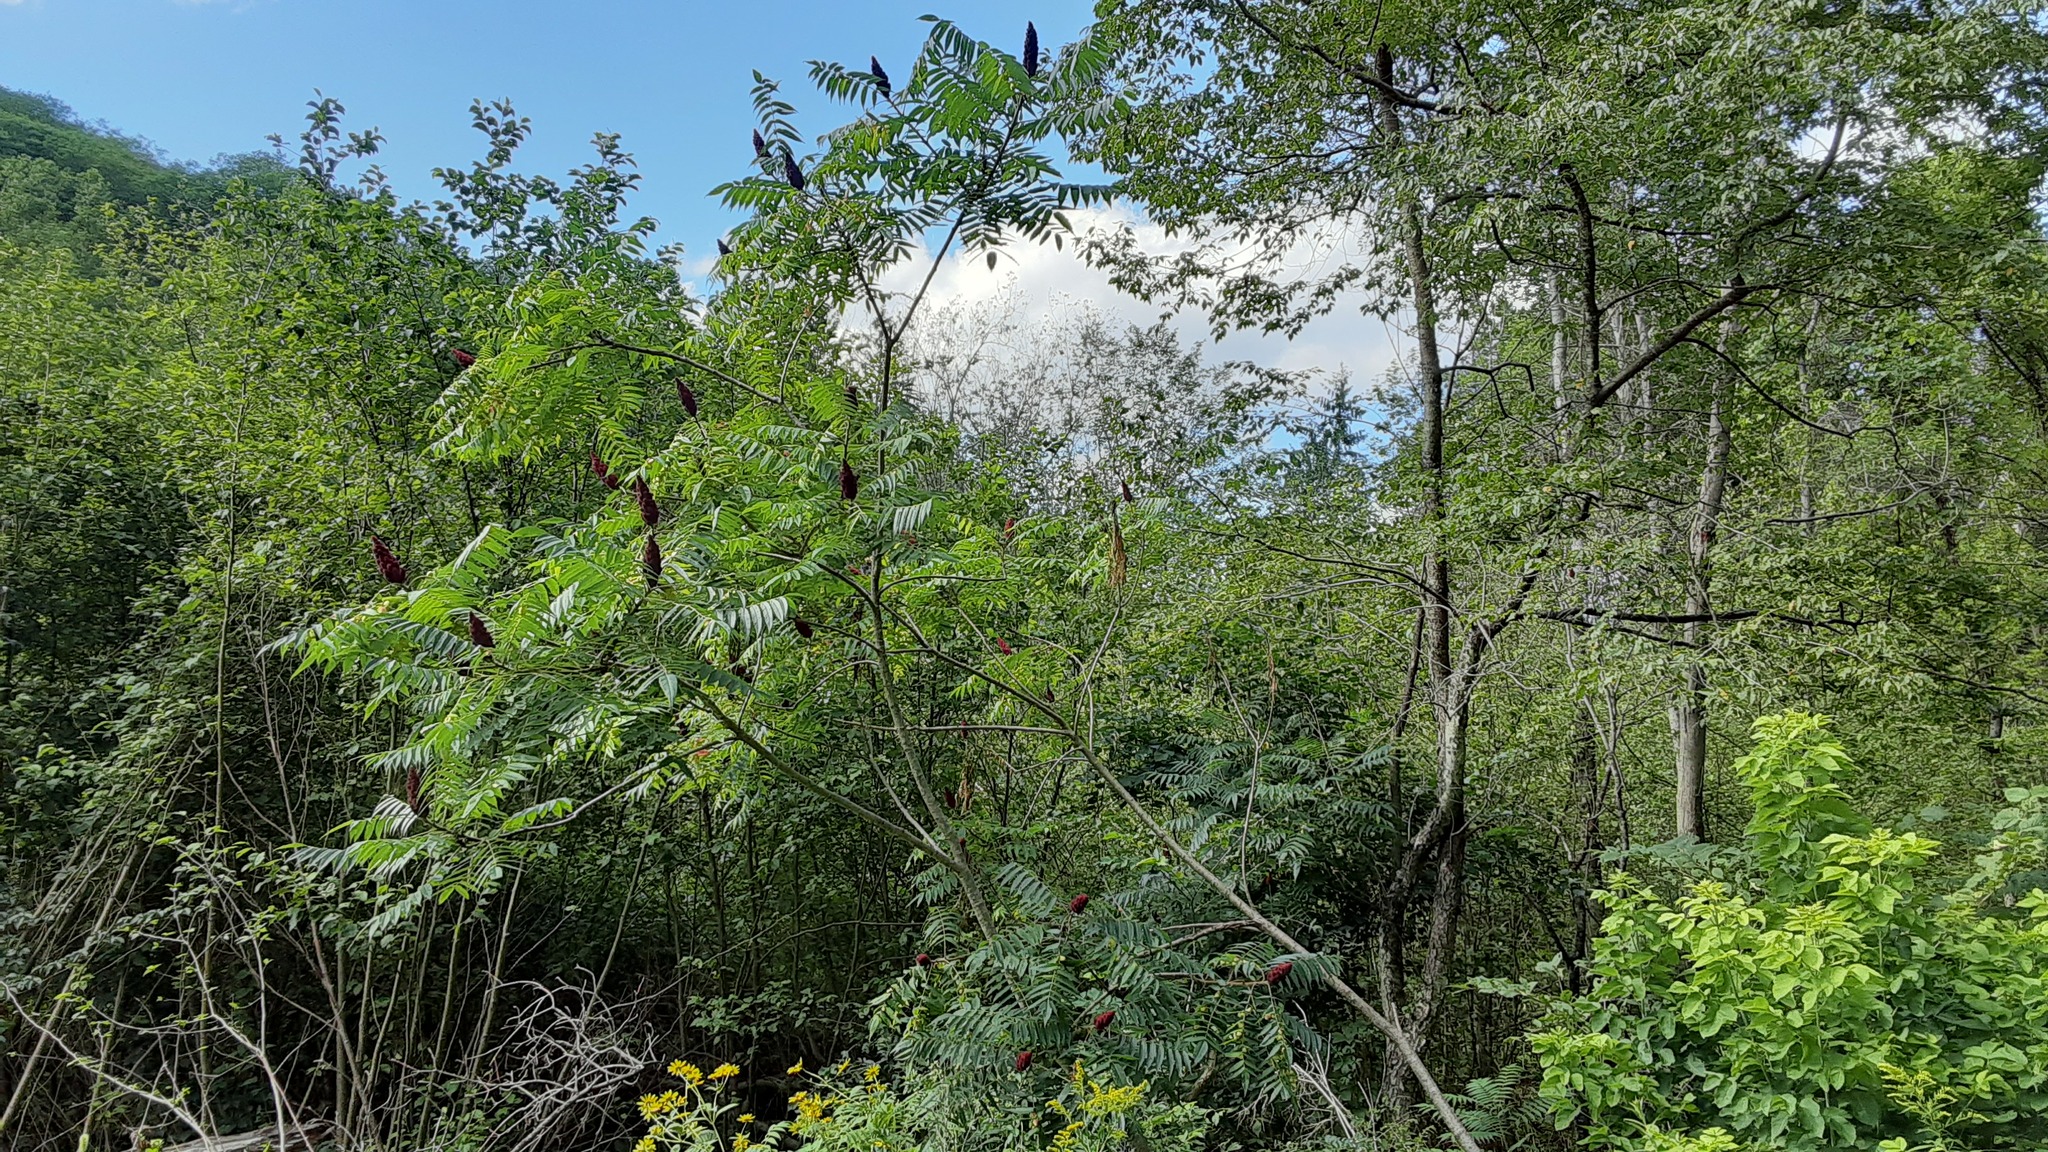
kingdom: Plantae
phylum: Tracheophyta
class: Magnoliopsida
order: Sapindales
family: Anacardiaceae
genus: Rhus
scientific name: Rhus typhina
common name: Staghorn sumac
